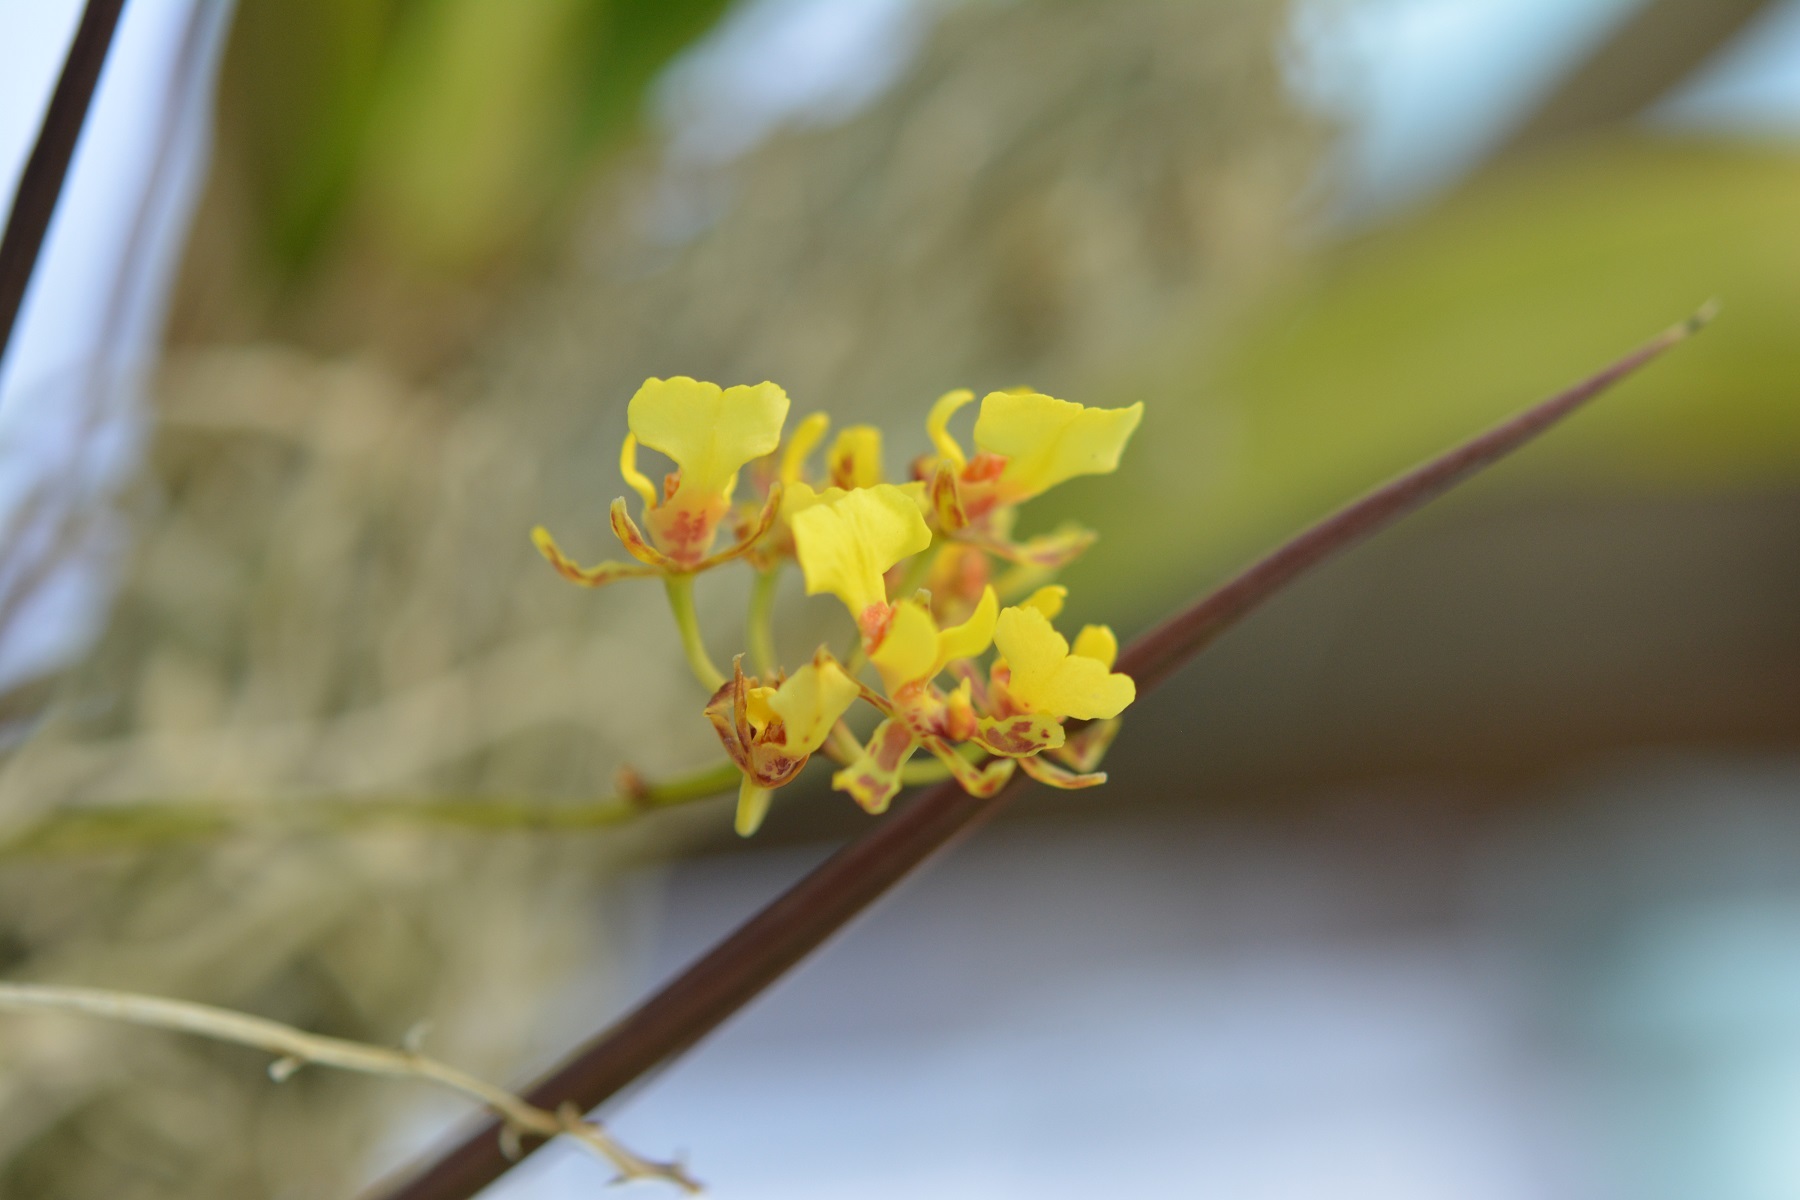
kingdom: Plantae
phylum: Tracheophyta
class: Liliopsida
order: Asparagales
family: Orchidaceae
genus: Trichocentrum
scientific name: Trichocentrum ascendens
